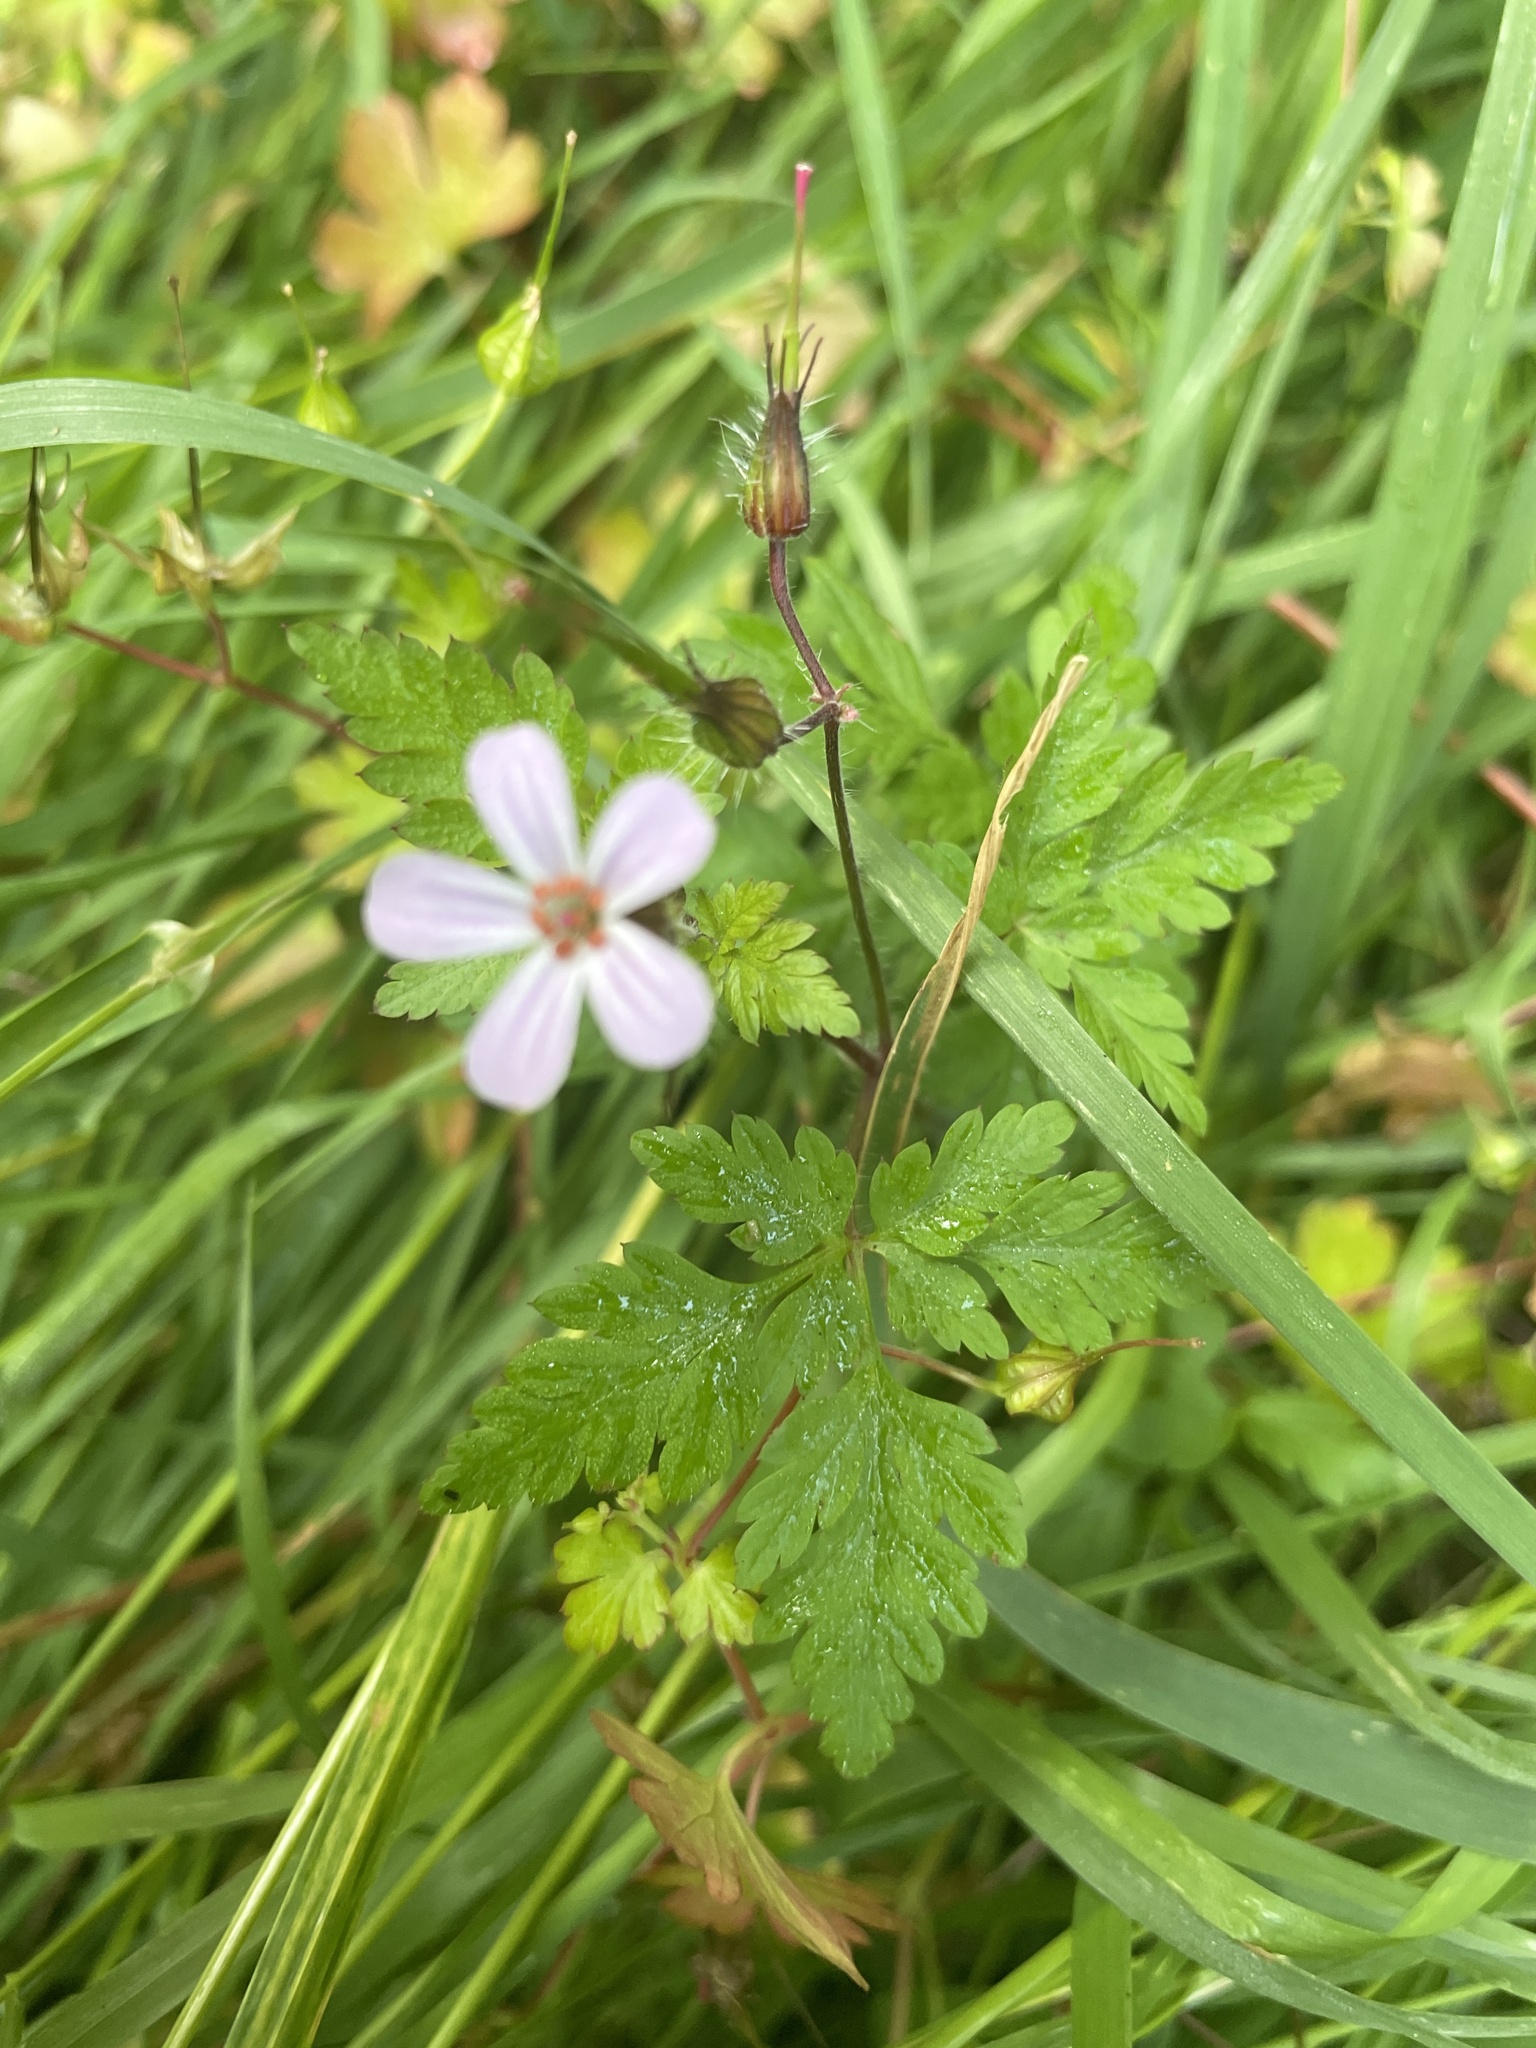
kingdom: Plantae
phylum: Tracheophyta
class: Magnoliopsida
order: Geraniales
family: Geraniaceae
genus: Geranium
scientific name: Geranium robertianum
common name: Herb-robert
